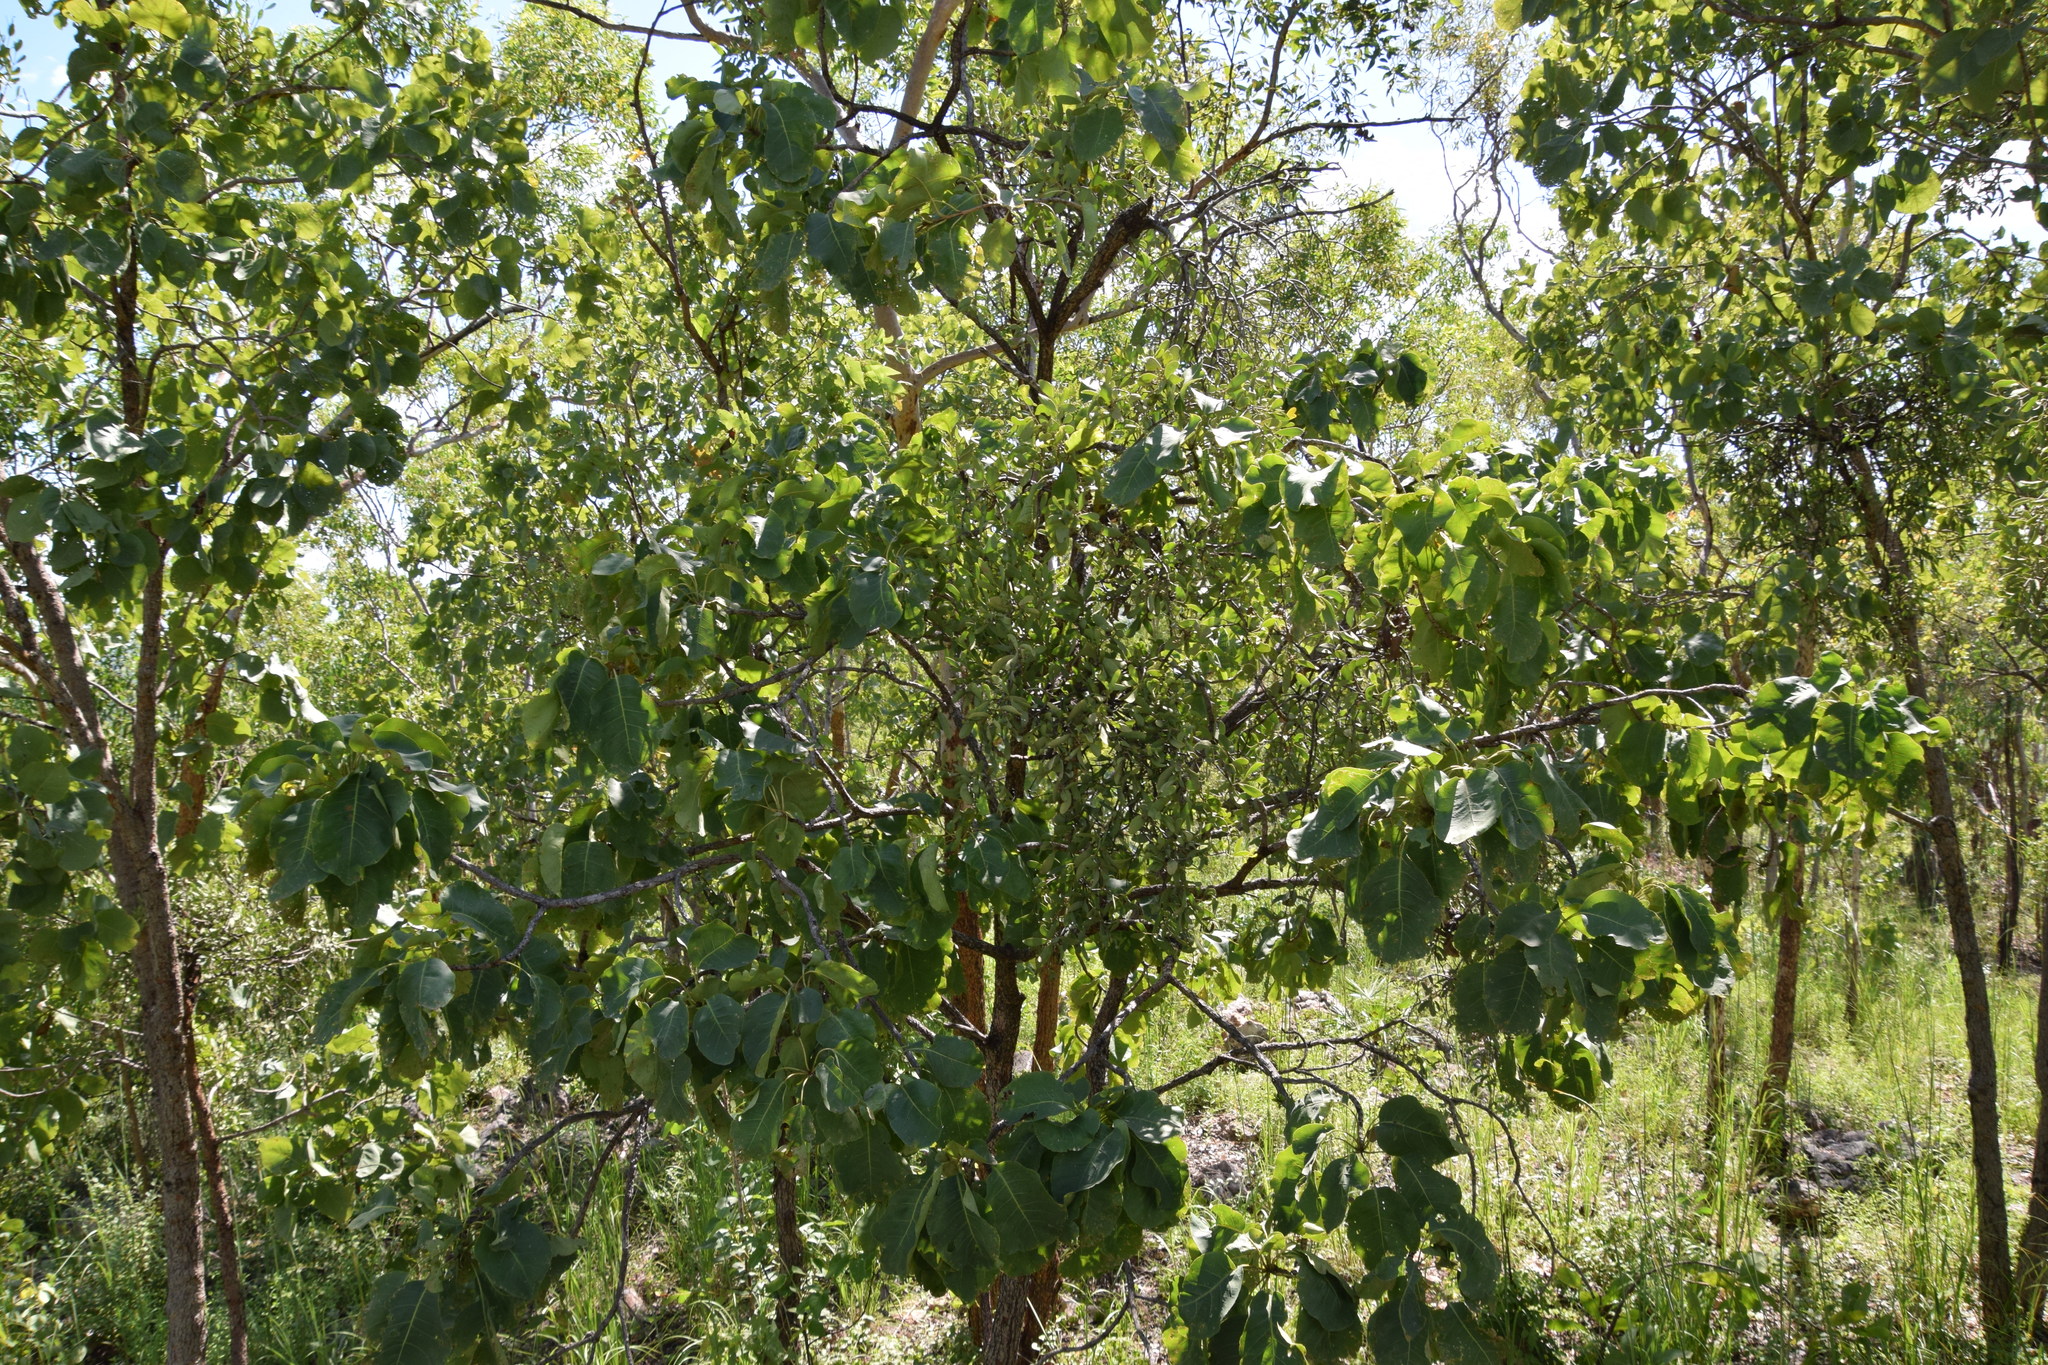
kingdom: Plantae
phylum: Tracheophyta
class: Magnoliopsida
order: Myrtales
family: Combretaceae
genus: Terminalia
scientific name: Terminalia ferdinandiana
